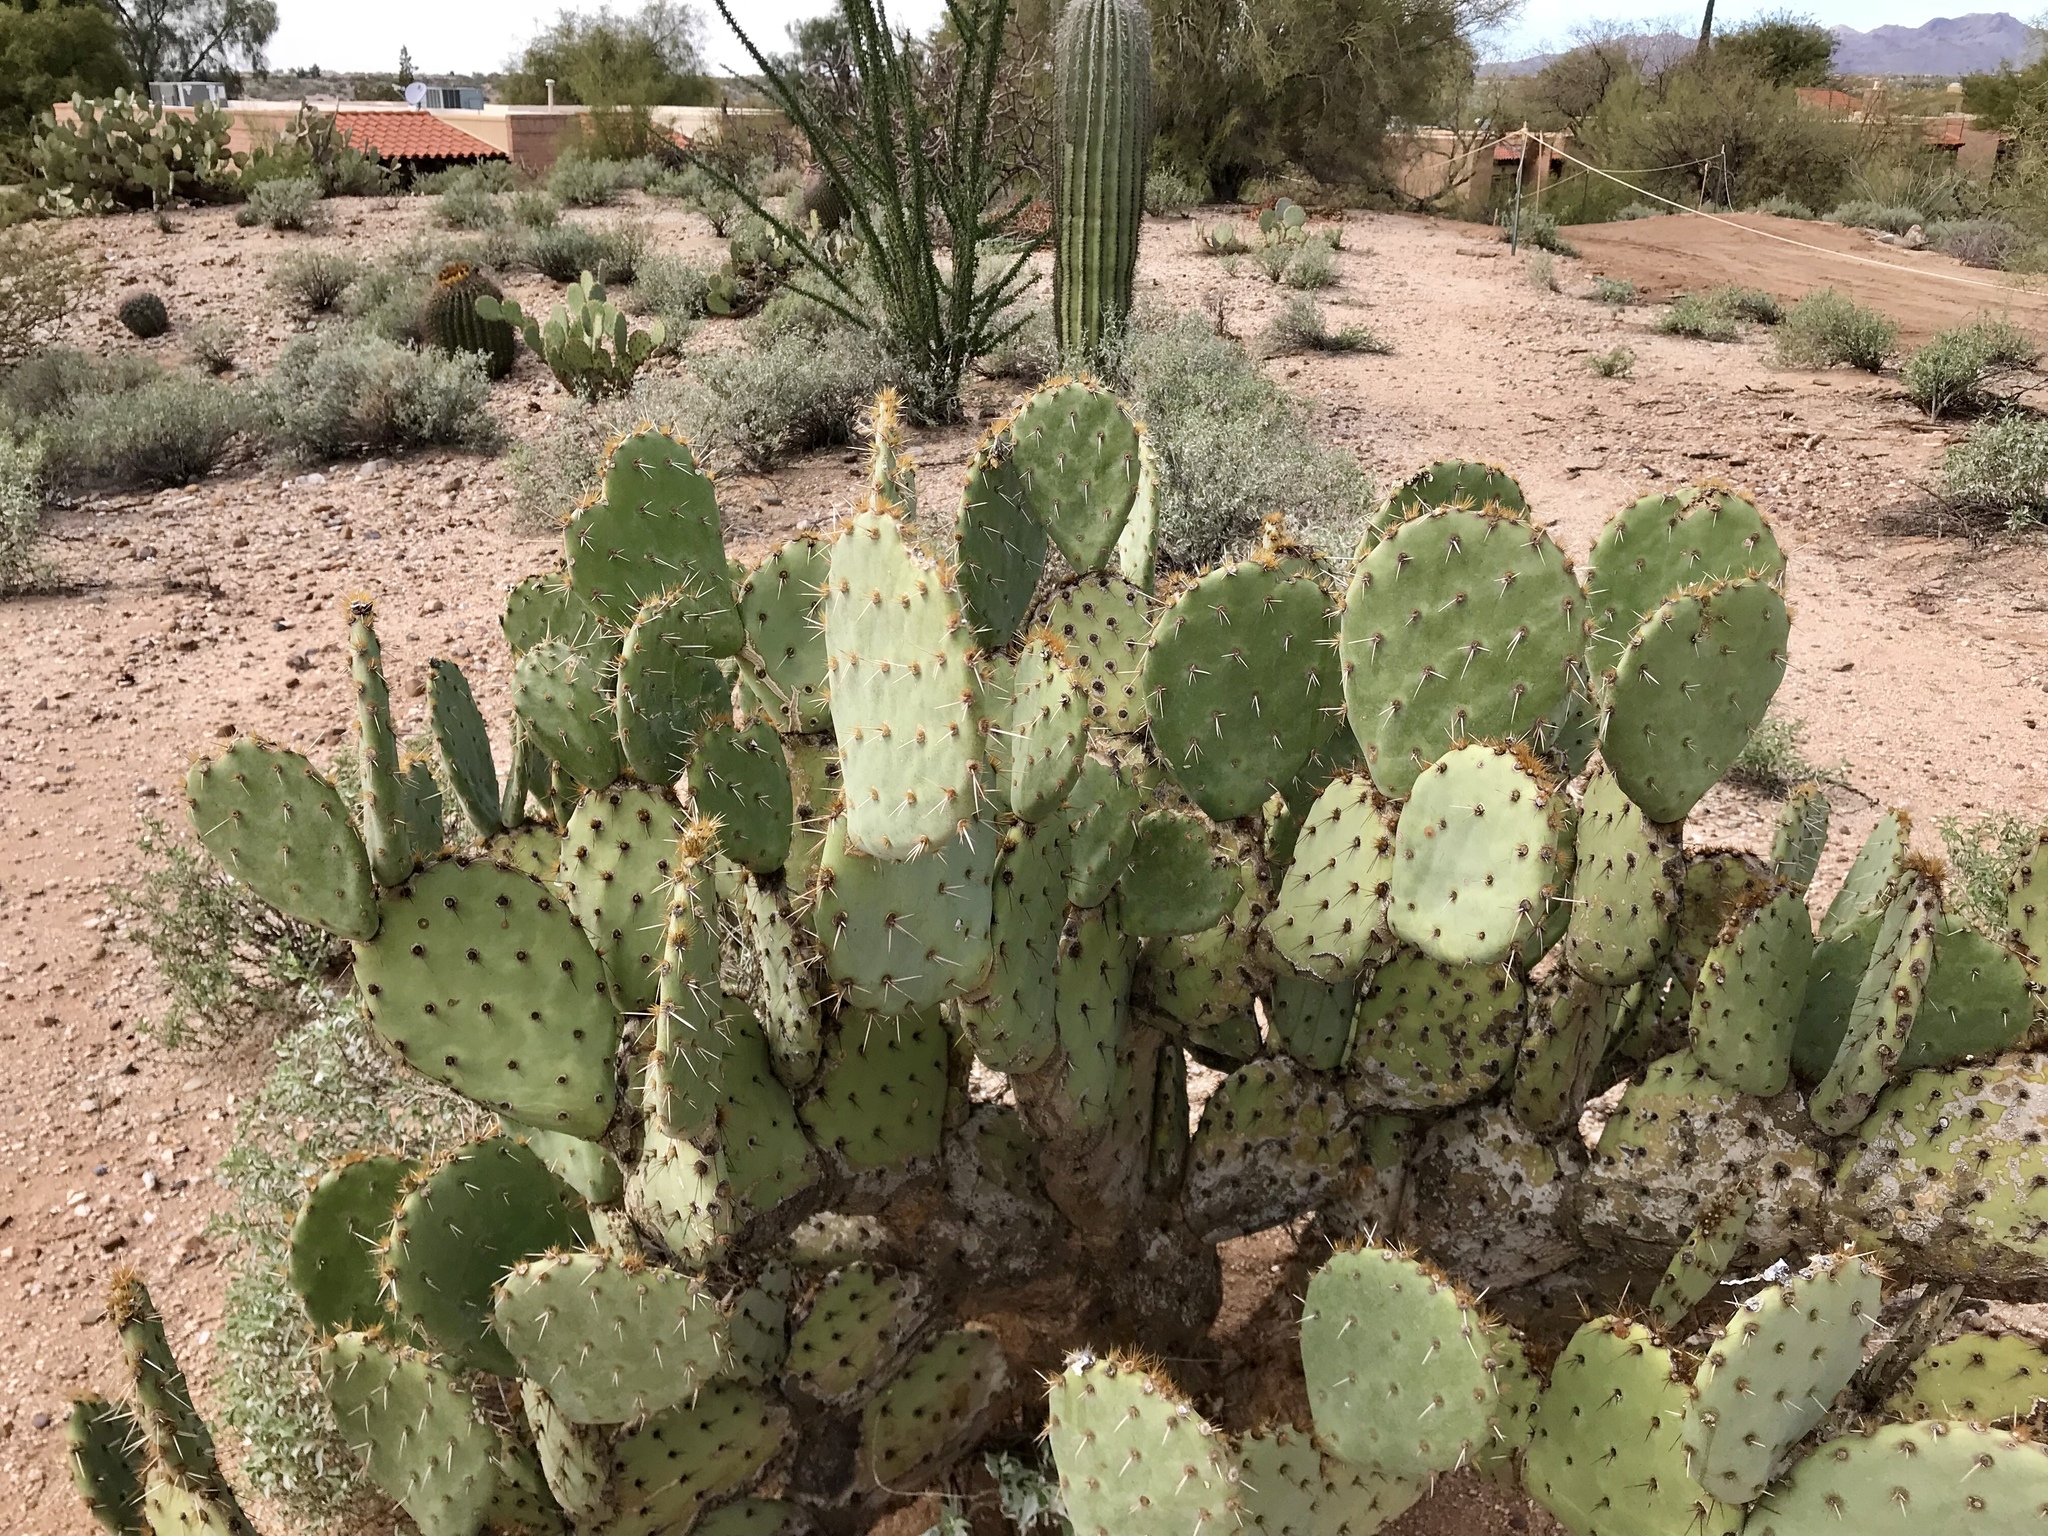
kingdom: Plantae
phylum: Tracheophyta
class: Magnoliopsida
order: Caryophyllales
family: Cactaceae
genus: Opuntia
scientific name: Opuntia engelmannii
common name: Cactus-apple
